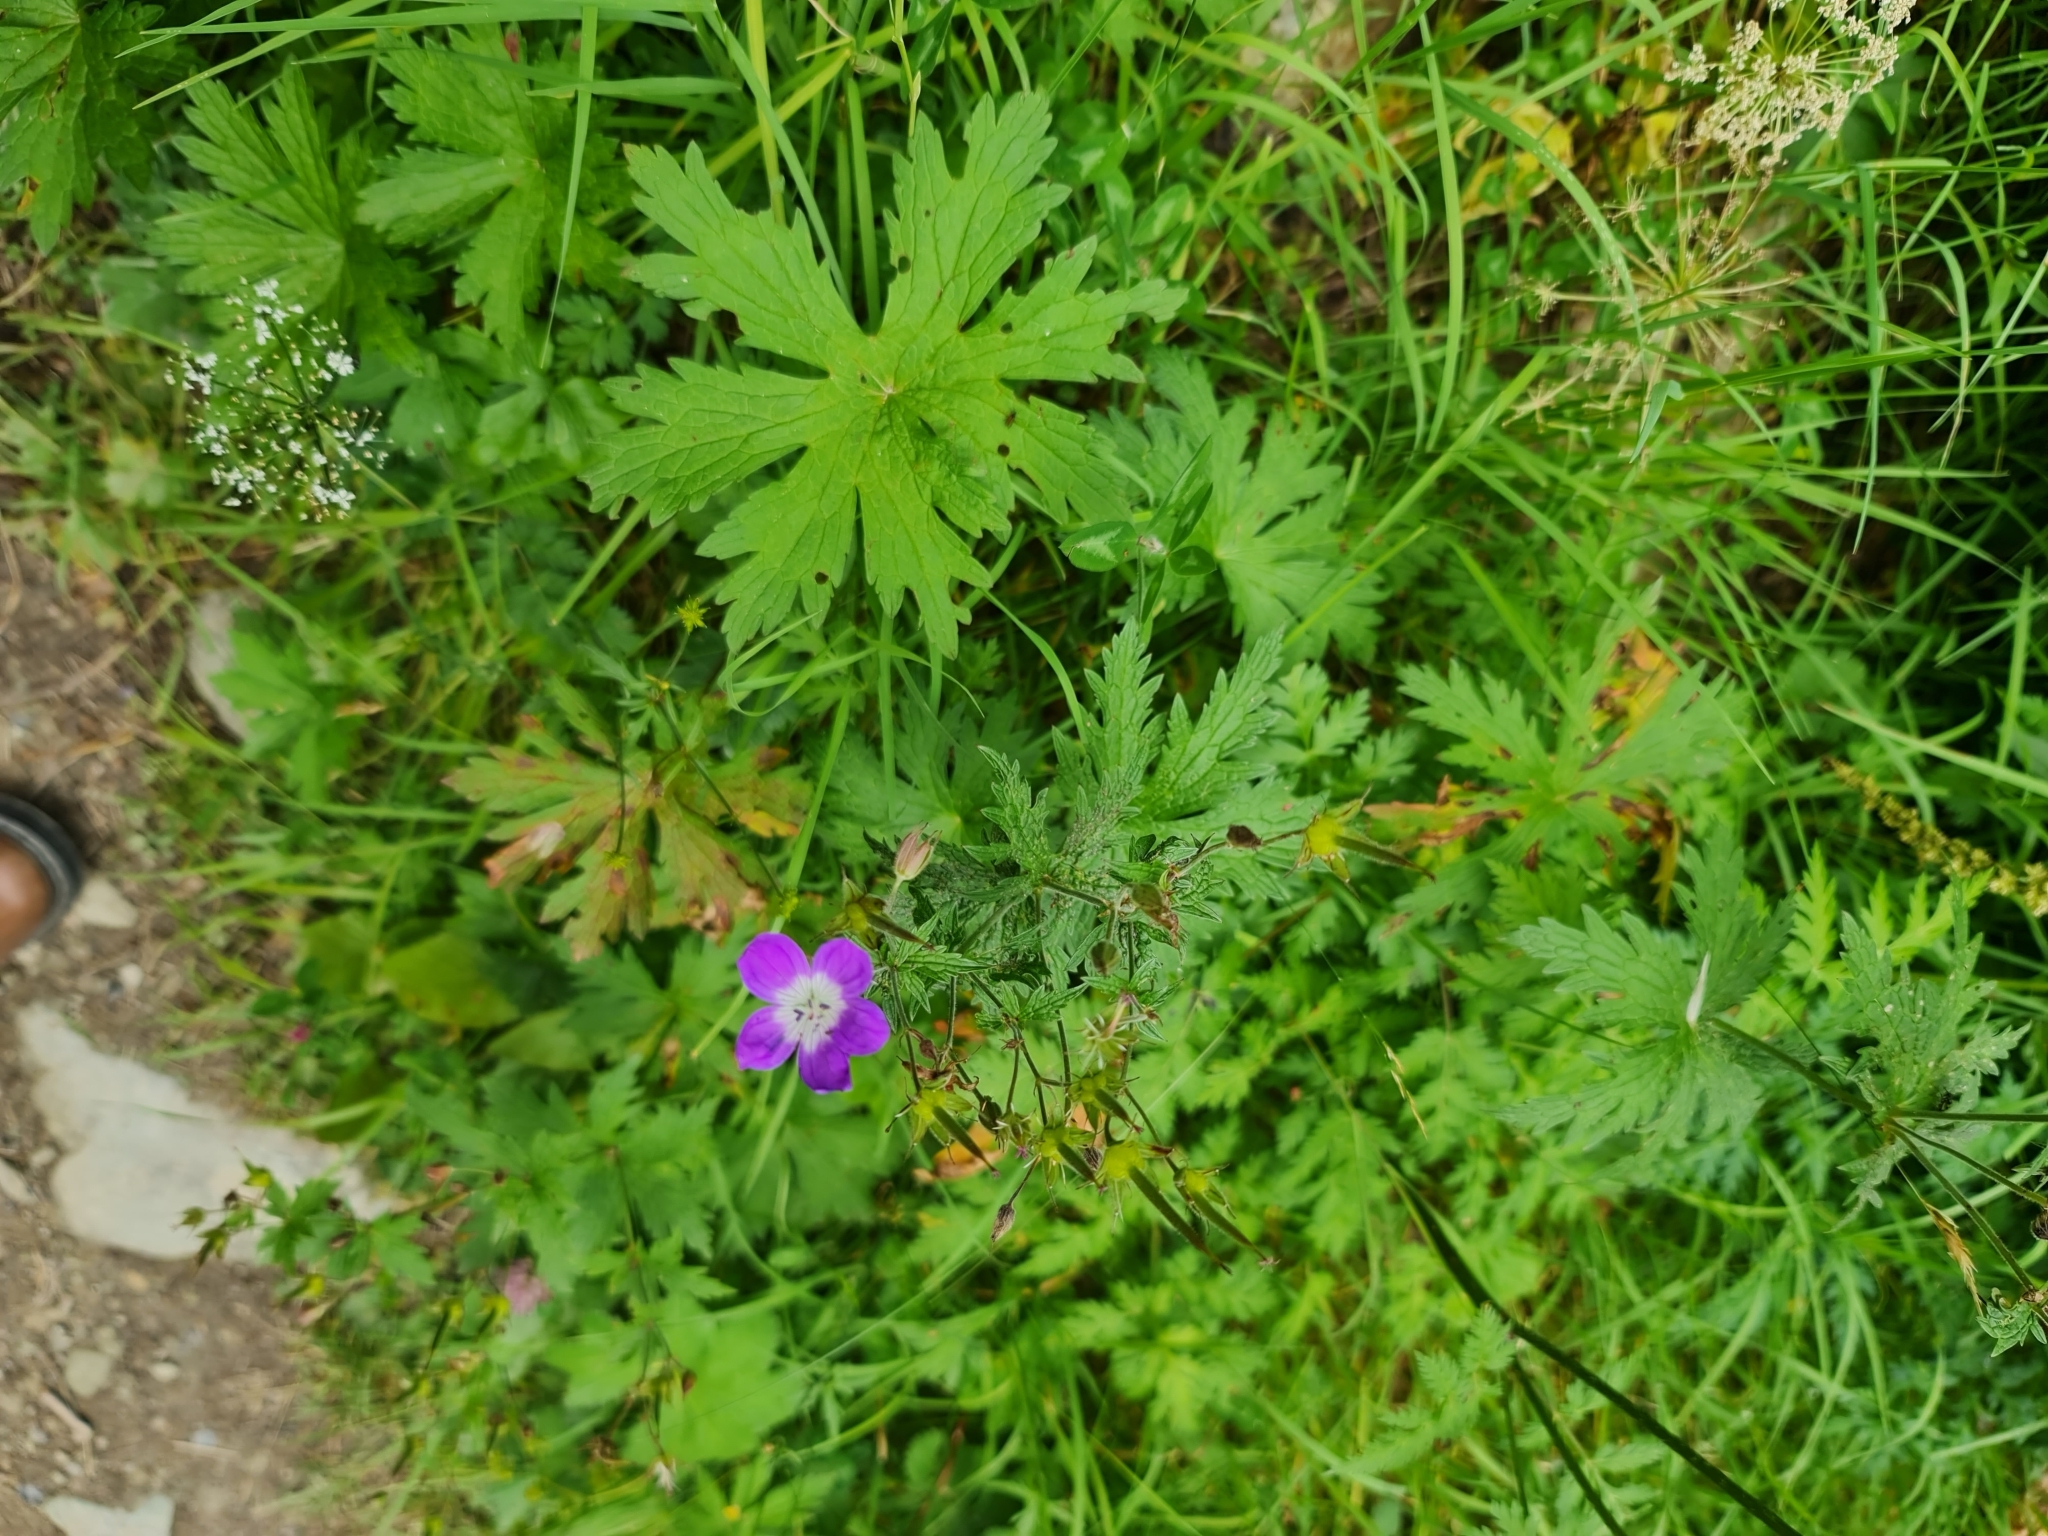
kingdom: Plantae
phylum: Tracheophyta
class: Magnoliopsida
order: Geraniales
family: Geraniaceae
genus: Geranium
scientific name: Geranium sylvaticum
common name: Wood crane's-bill
